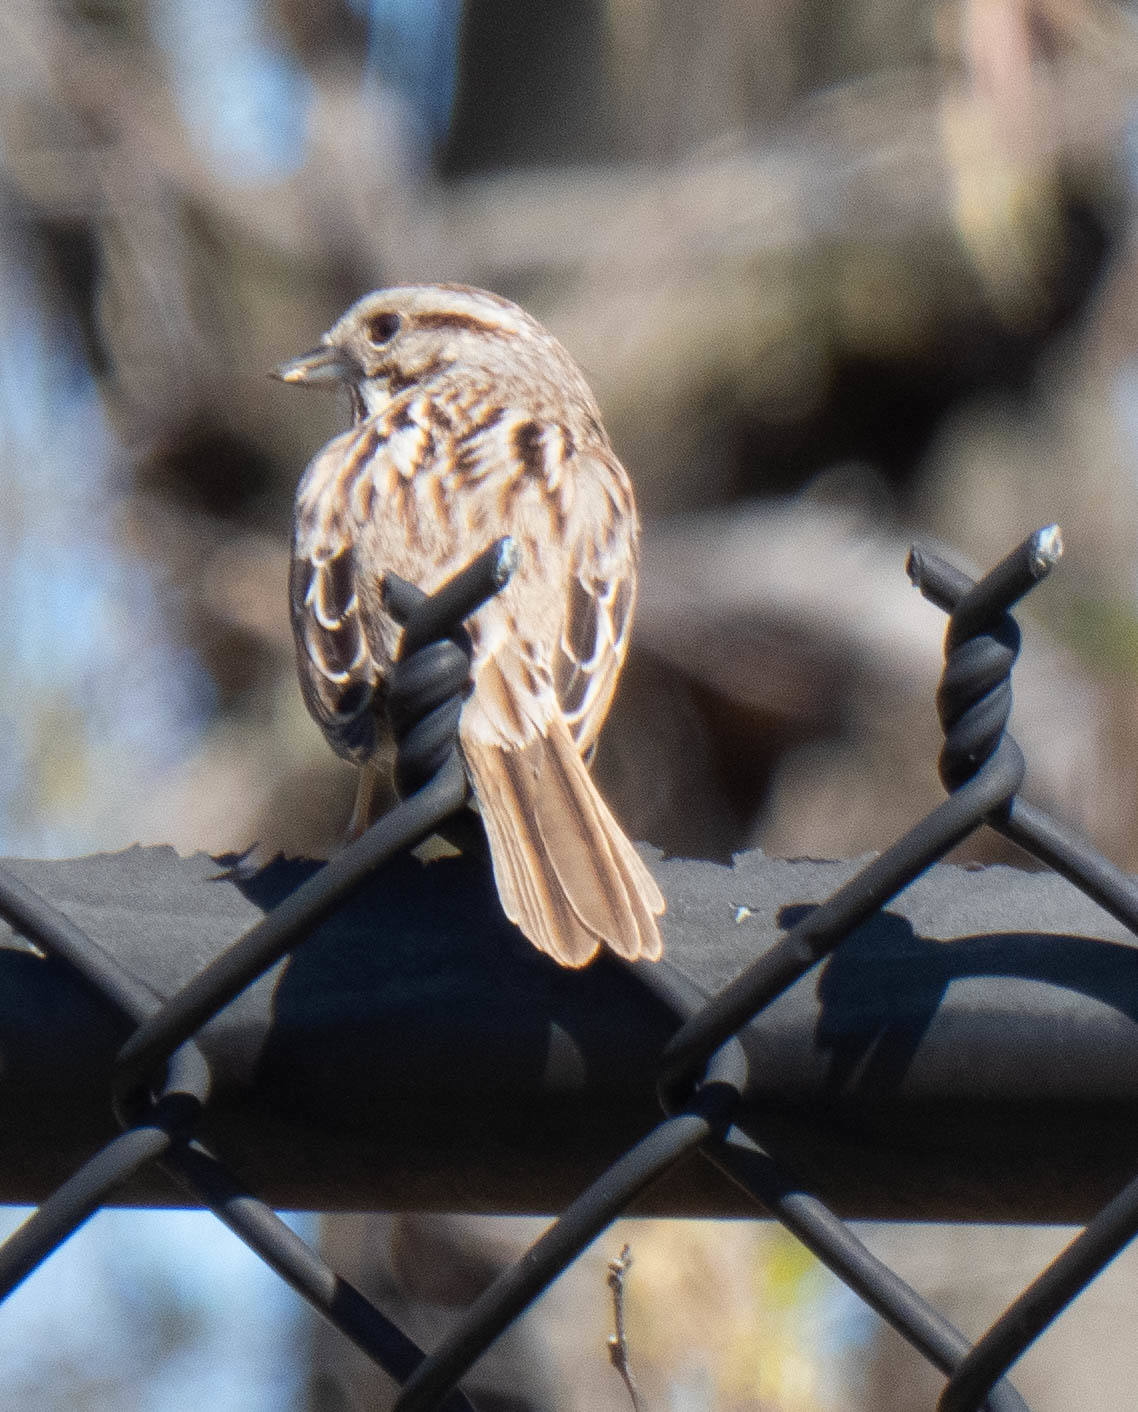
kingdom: Animalia
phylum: Chordata
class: Aves
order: Passeriformes
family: Passerellidae
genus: Melospiza
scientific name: Melospiza melodia
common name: Song sparrow
